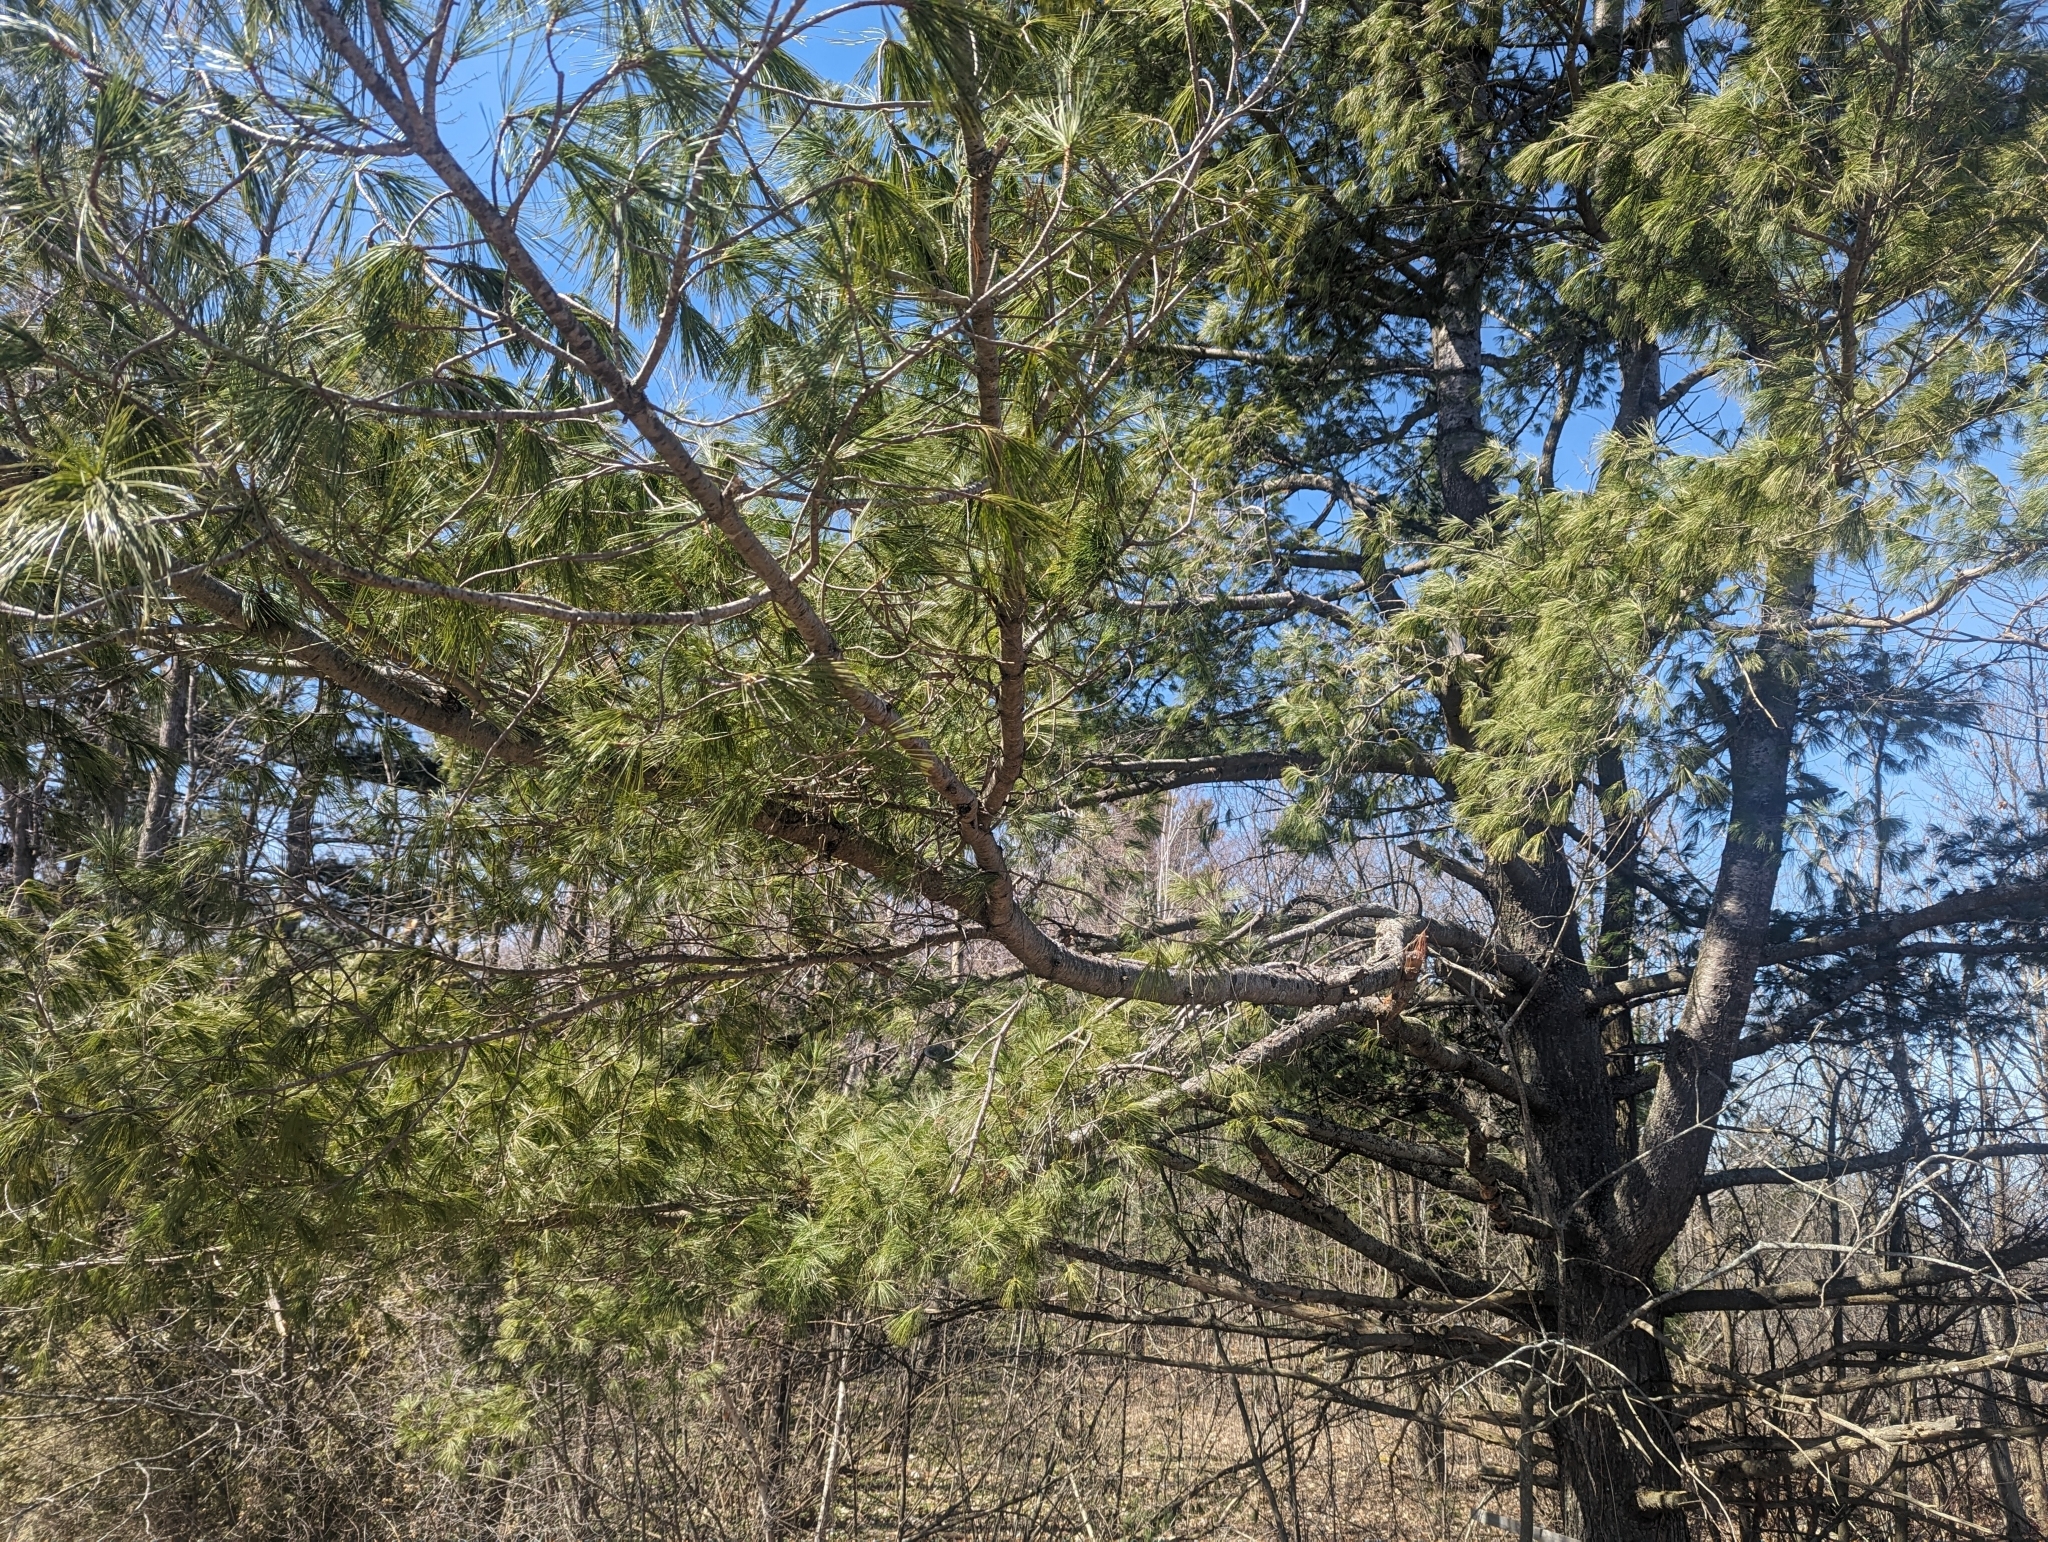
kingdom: Plantae
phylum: Tracheophyta
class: Pinopsida
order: Pinales
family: Pinaceae
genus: Pinus
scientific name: Pinus strobus
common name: Weymouth pine
